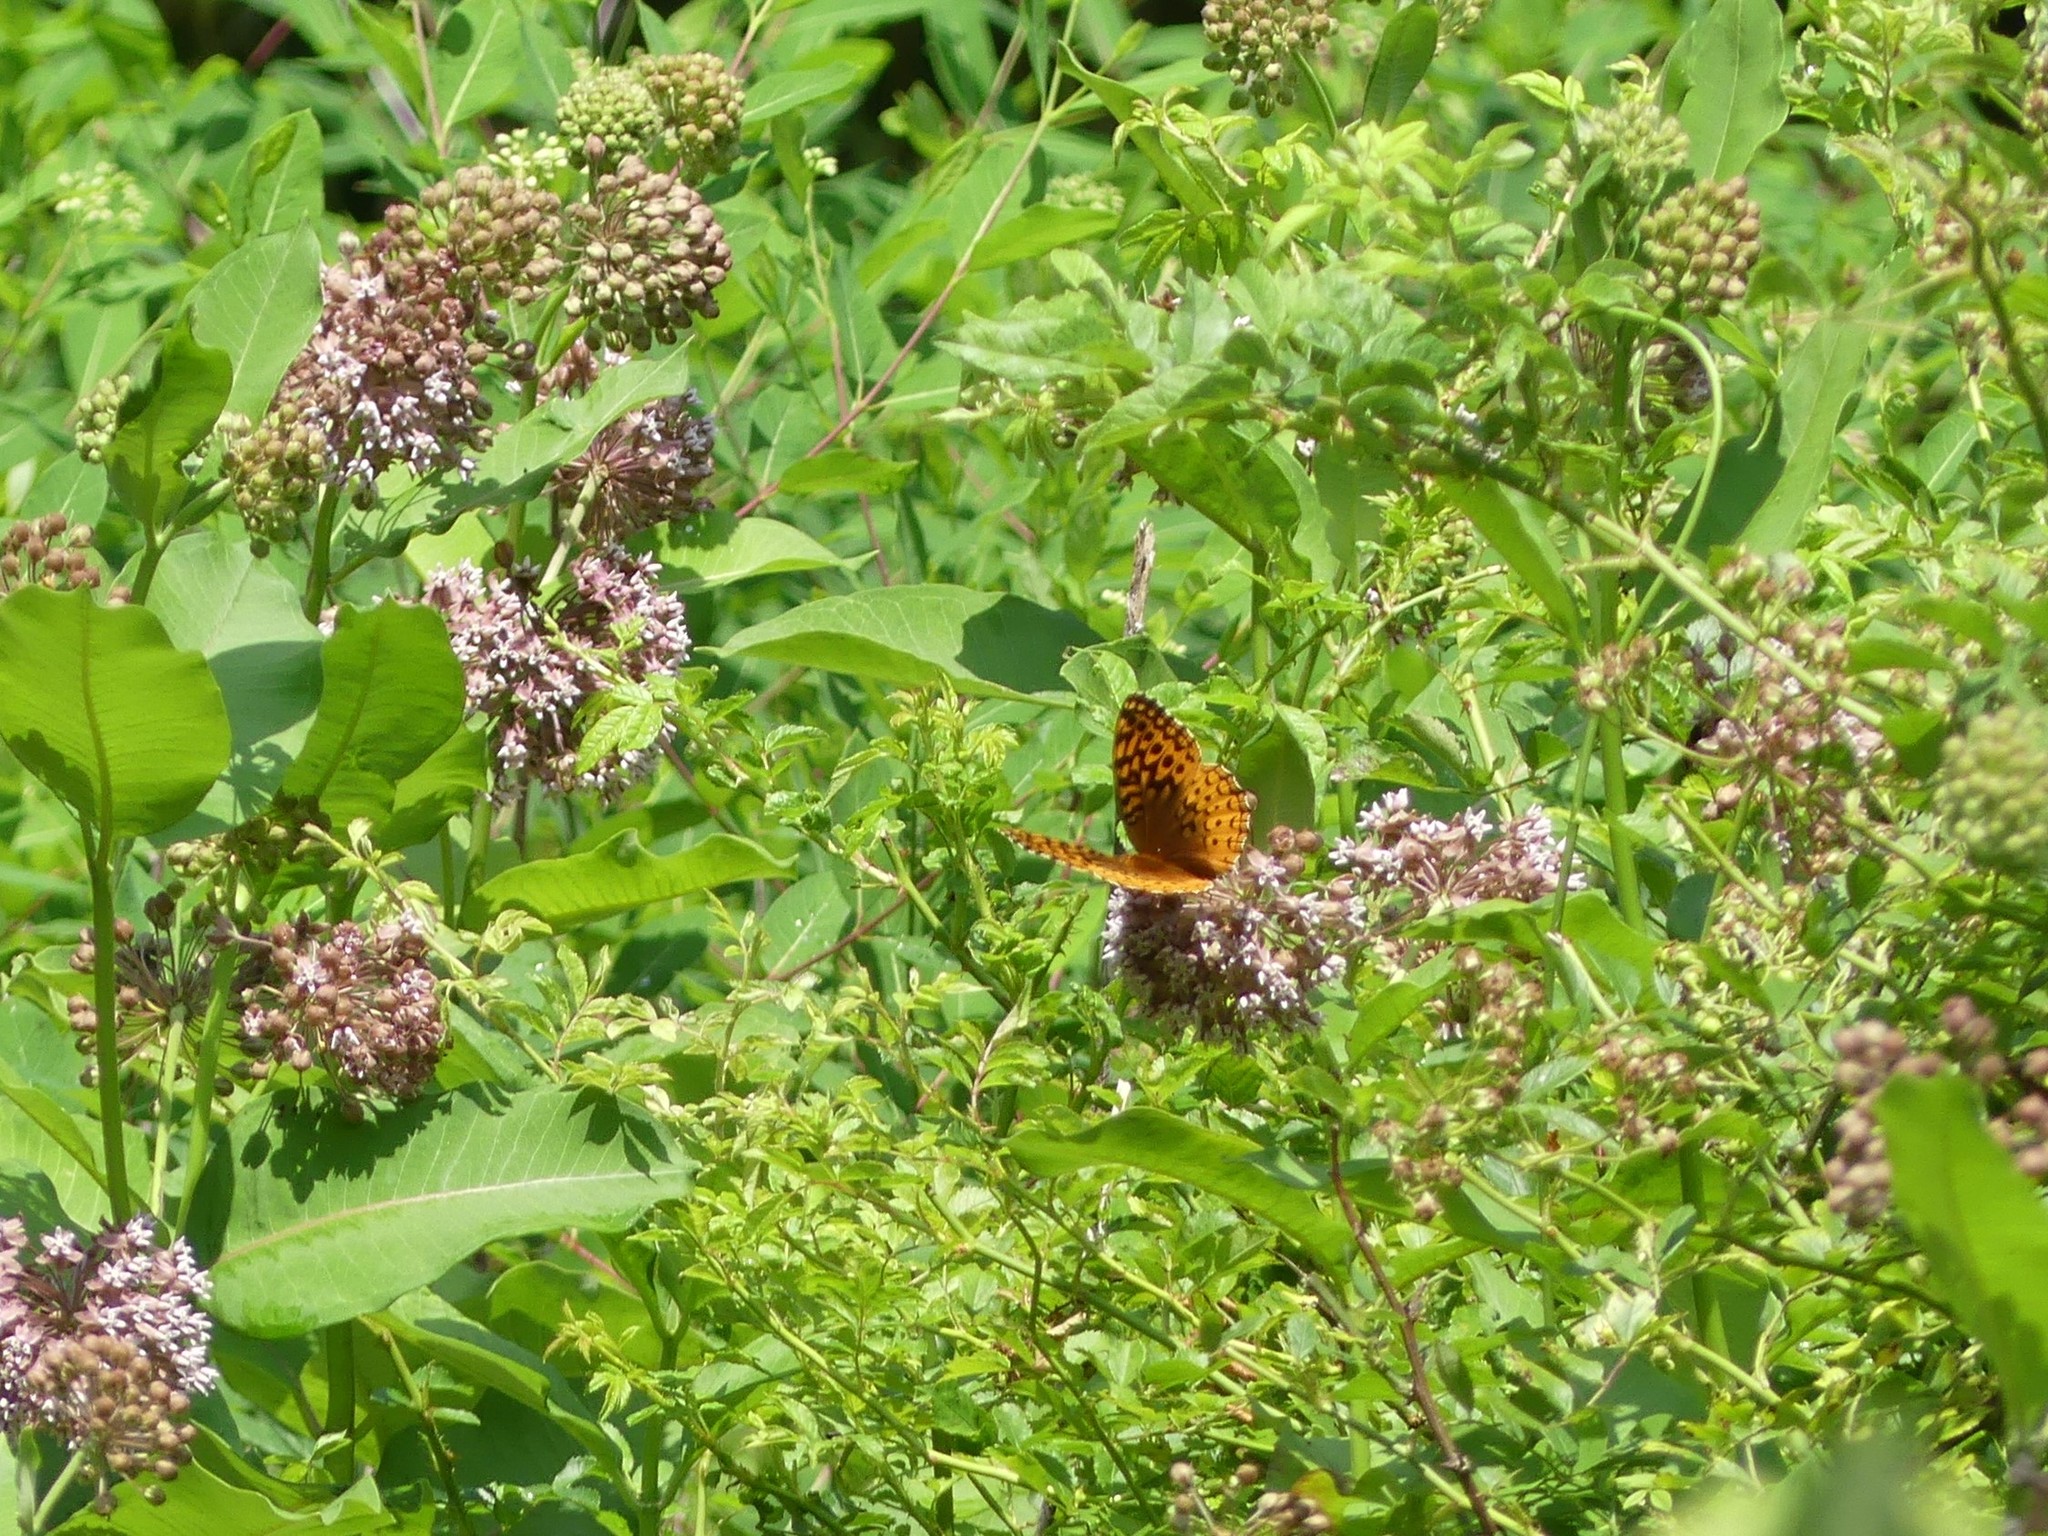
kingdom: Animalia
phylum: Arthropoda
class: Insecta
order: Lepidoptera
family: Nymphalidae
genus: Speyeria
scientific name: Speyeria cybele
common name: Great spangled fritillary
